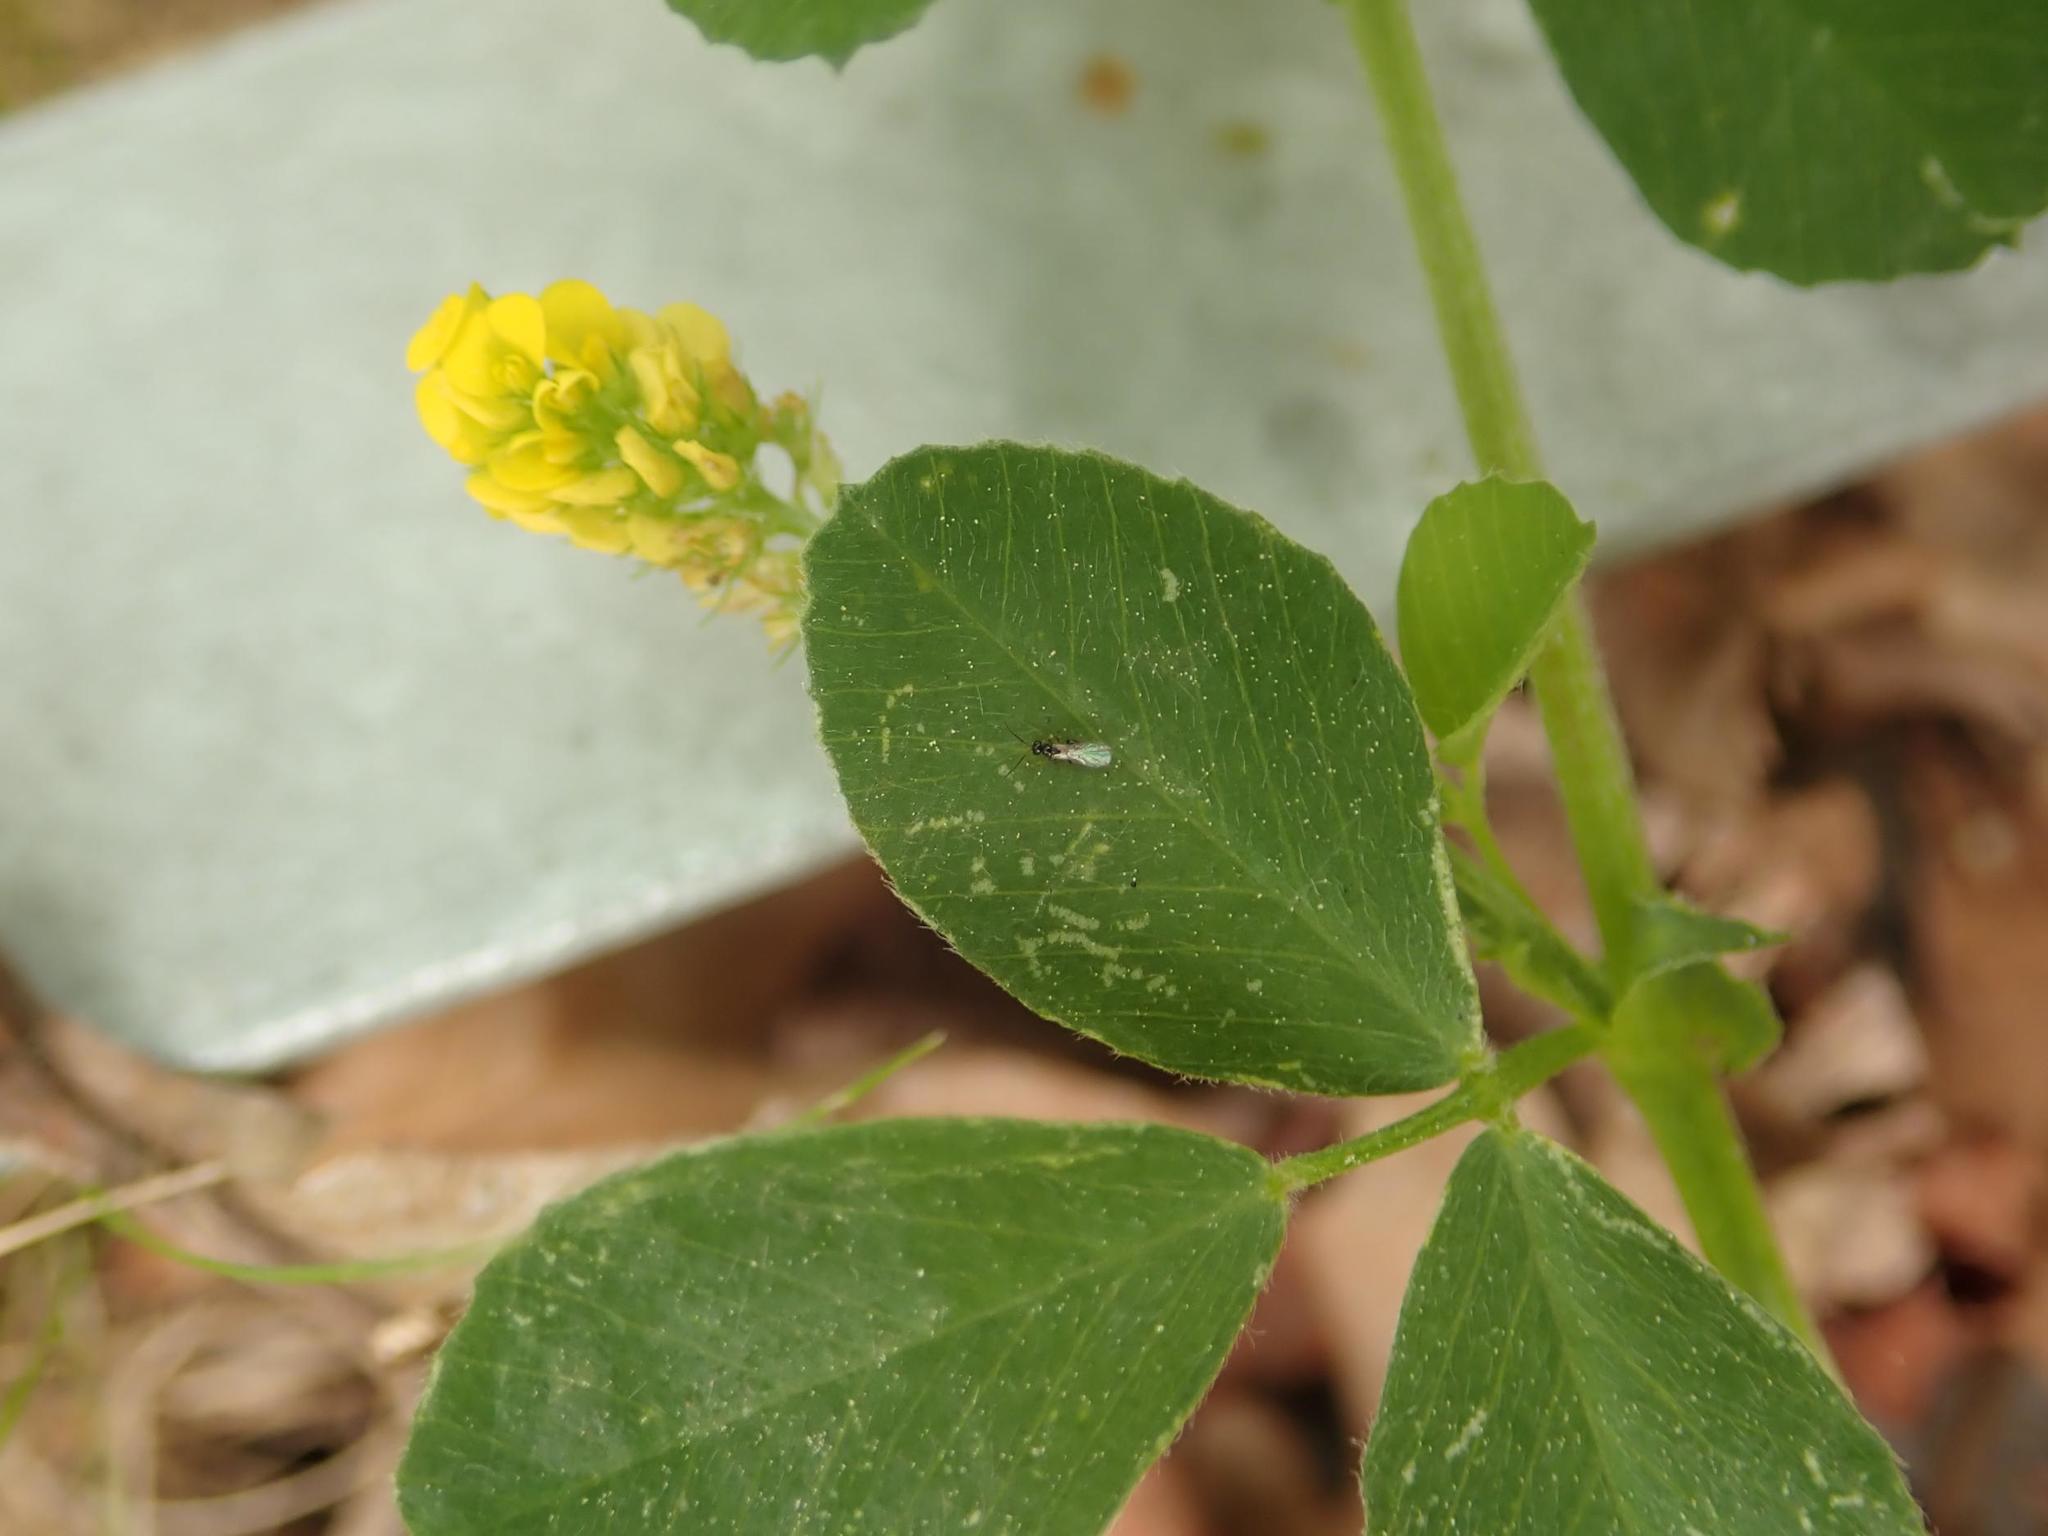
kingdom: Plantae
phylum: Tracheophyta
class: Magnoliopsida
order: Fabales
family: Fabaceae
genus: Medicago
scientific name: Medicago lupulina
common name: Black medick
